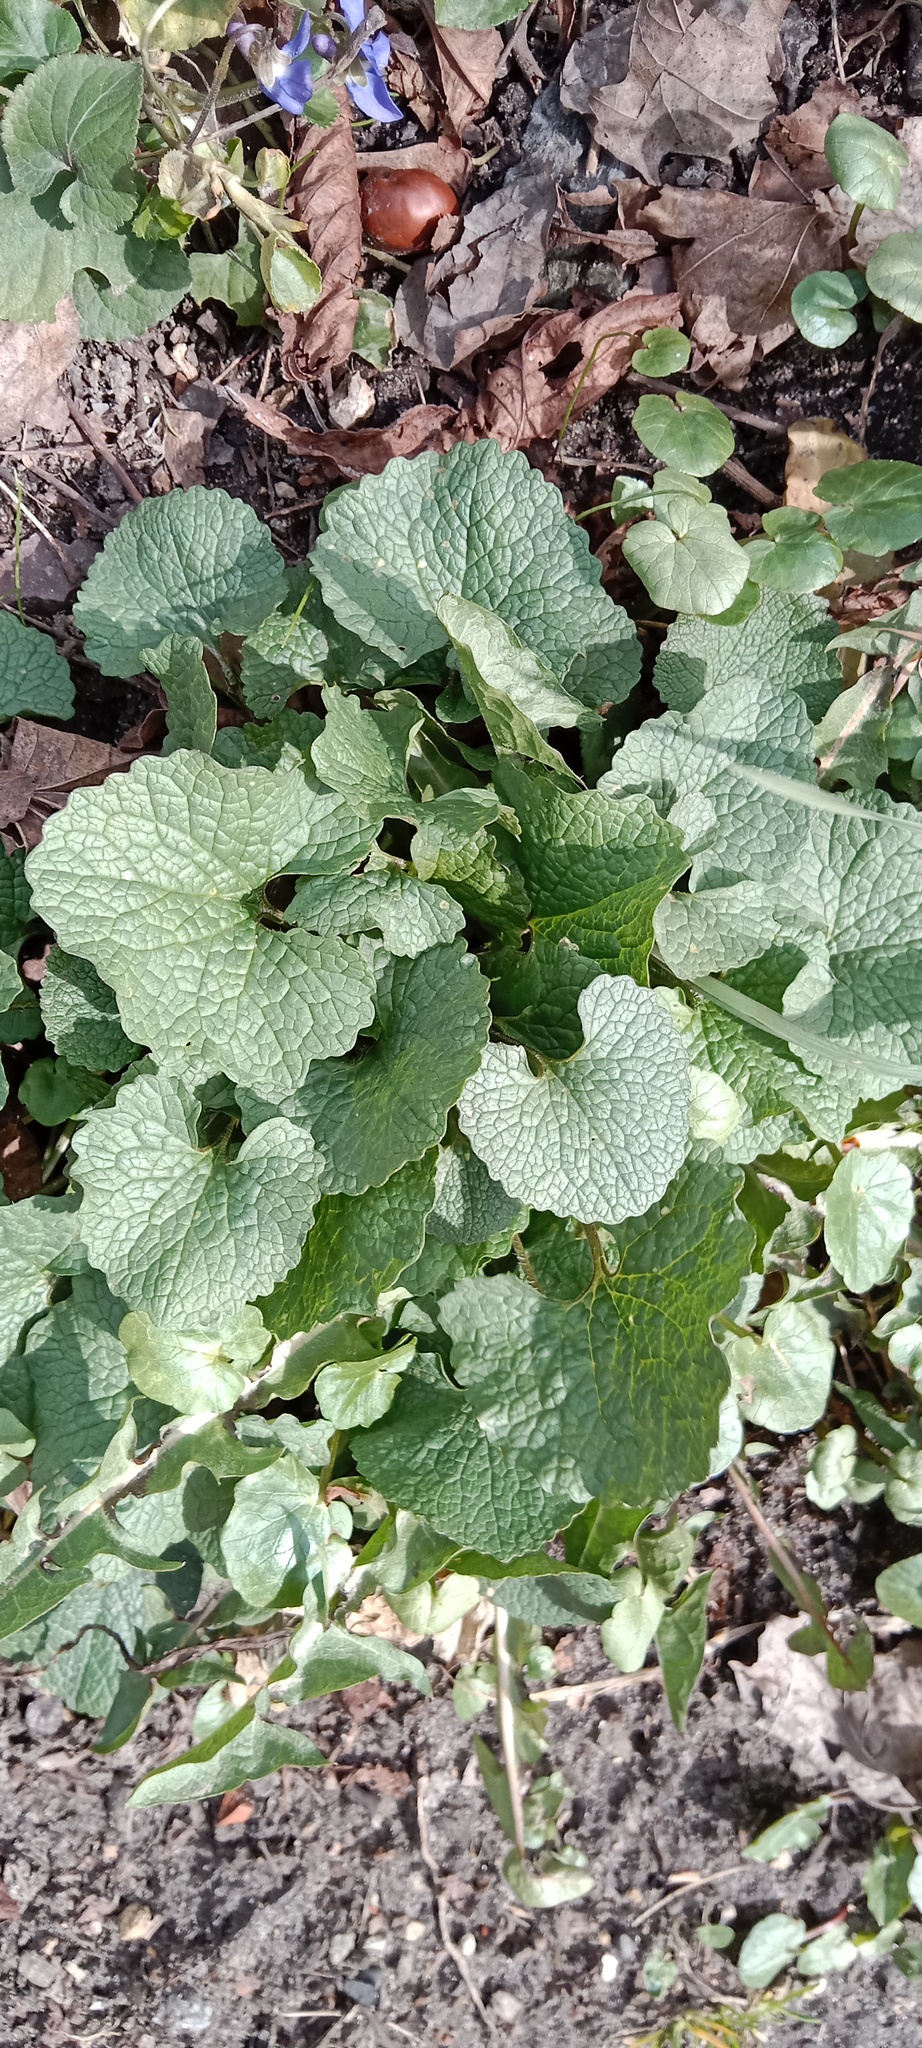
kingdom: Plantae
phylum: Tracheophyta
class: Magnoliopsida
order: Brassicales
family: Brassicaceae
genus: Alliaria
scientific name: Alliaria petiolata
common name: Garlic mustard
